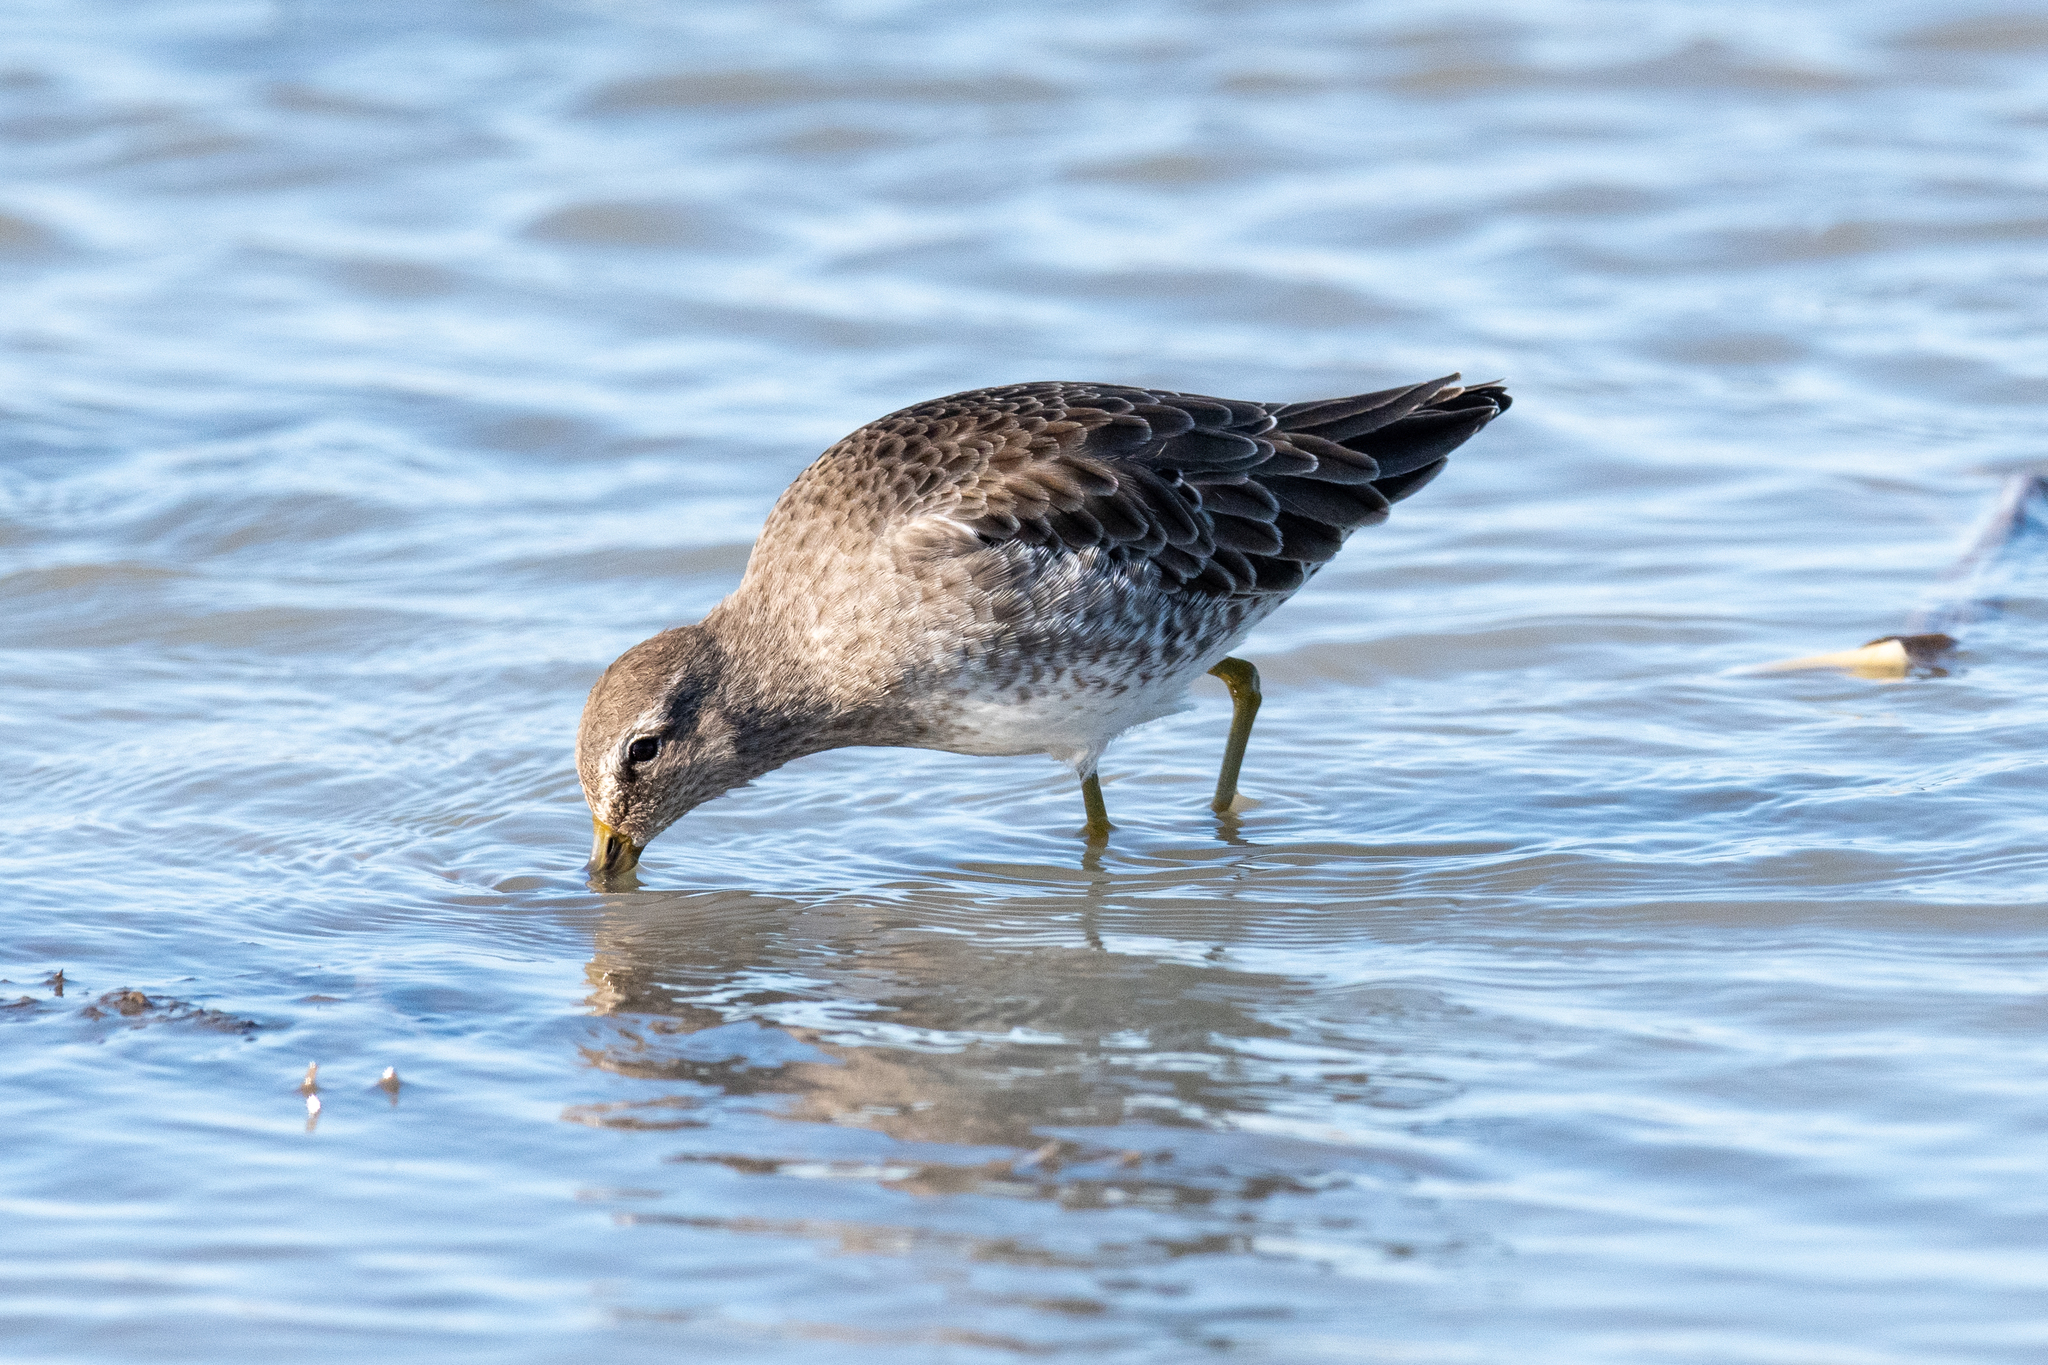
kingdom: Animalia
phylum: Chordata
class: Aves
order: Charadriiformes
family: Scolopacidae
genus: Limnodromus
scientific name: Limnodromus scolopaceus
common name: Long-billed dowitcher
